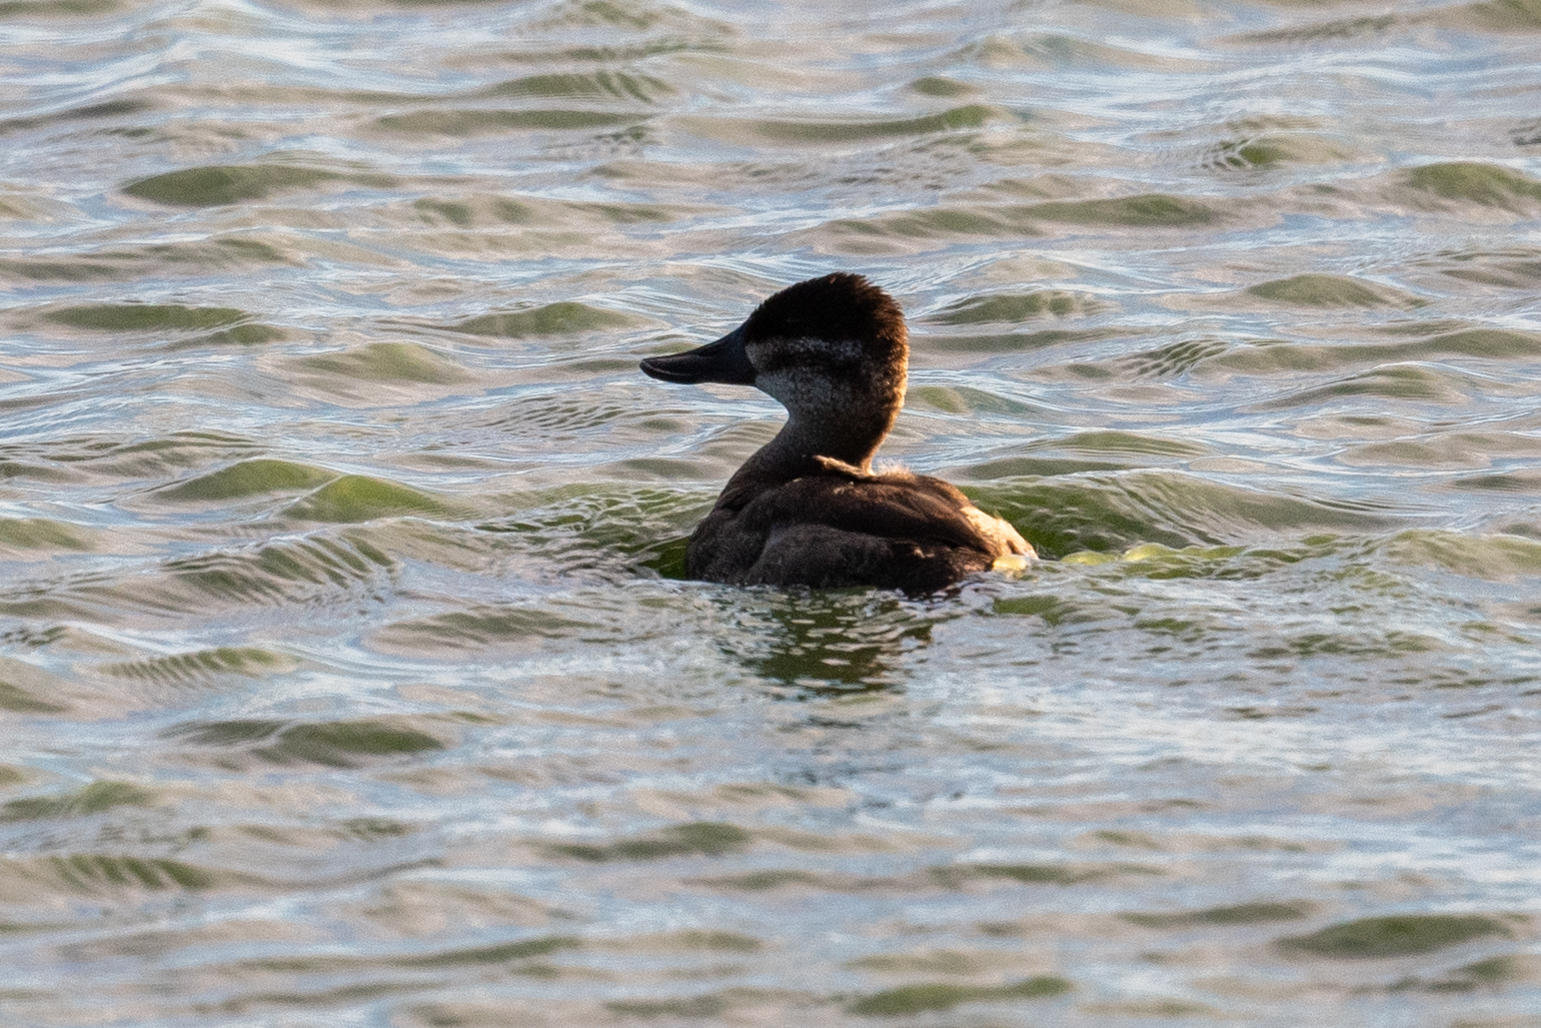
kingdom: Animalia
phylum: Chordata
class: Aves
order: Anseriformes
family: Anatidae
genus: Oxyura
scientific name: Oxyura jamaicensis
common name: Ruddy duck
